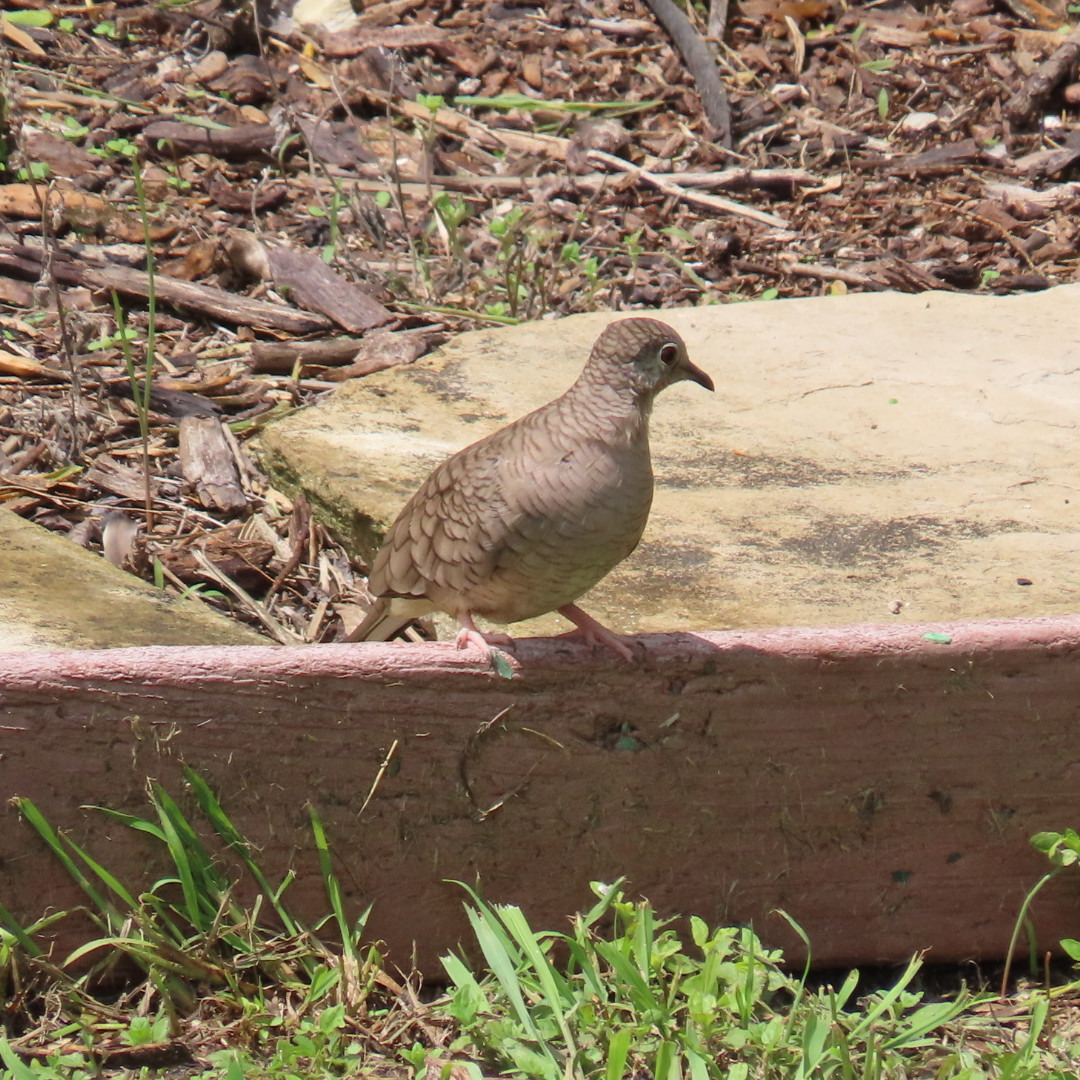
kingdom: Animalia
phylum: Chordata
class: Aves
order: Columbiformes
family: Columbidae
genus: Columbina
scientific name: Columbina inca
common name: Inca dove
